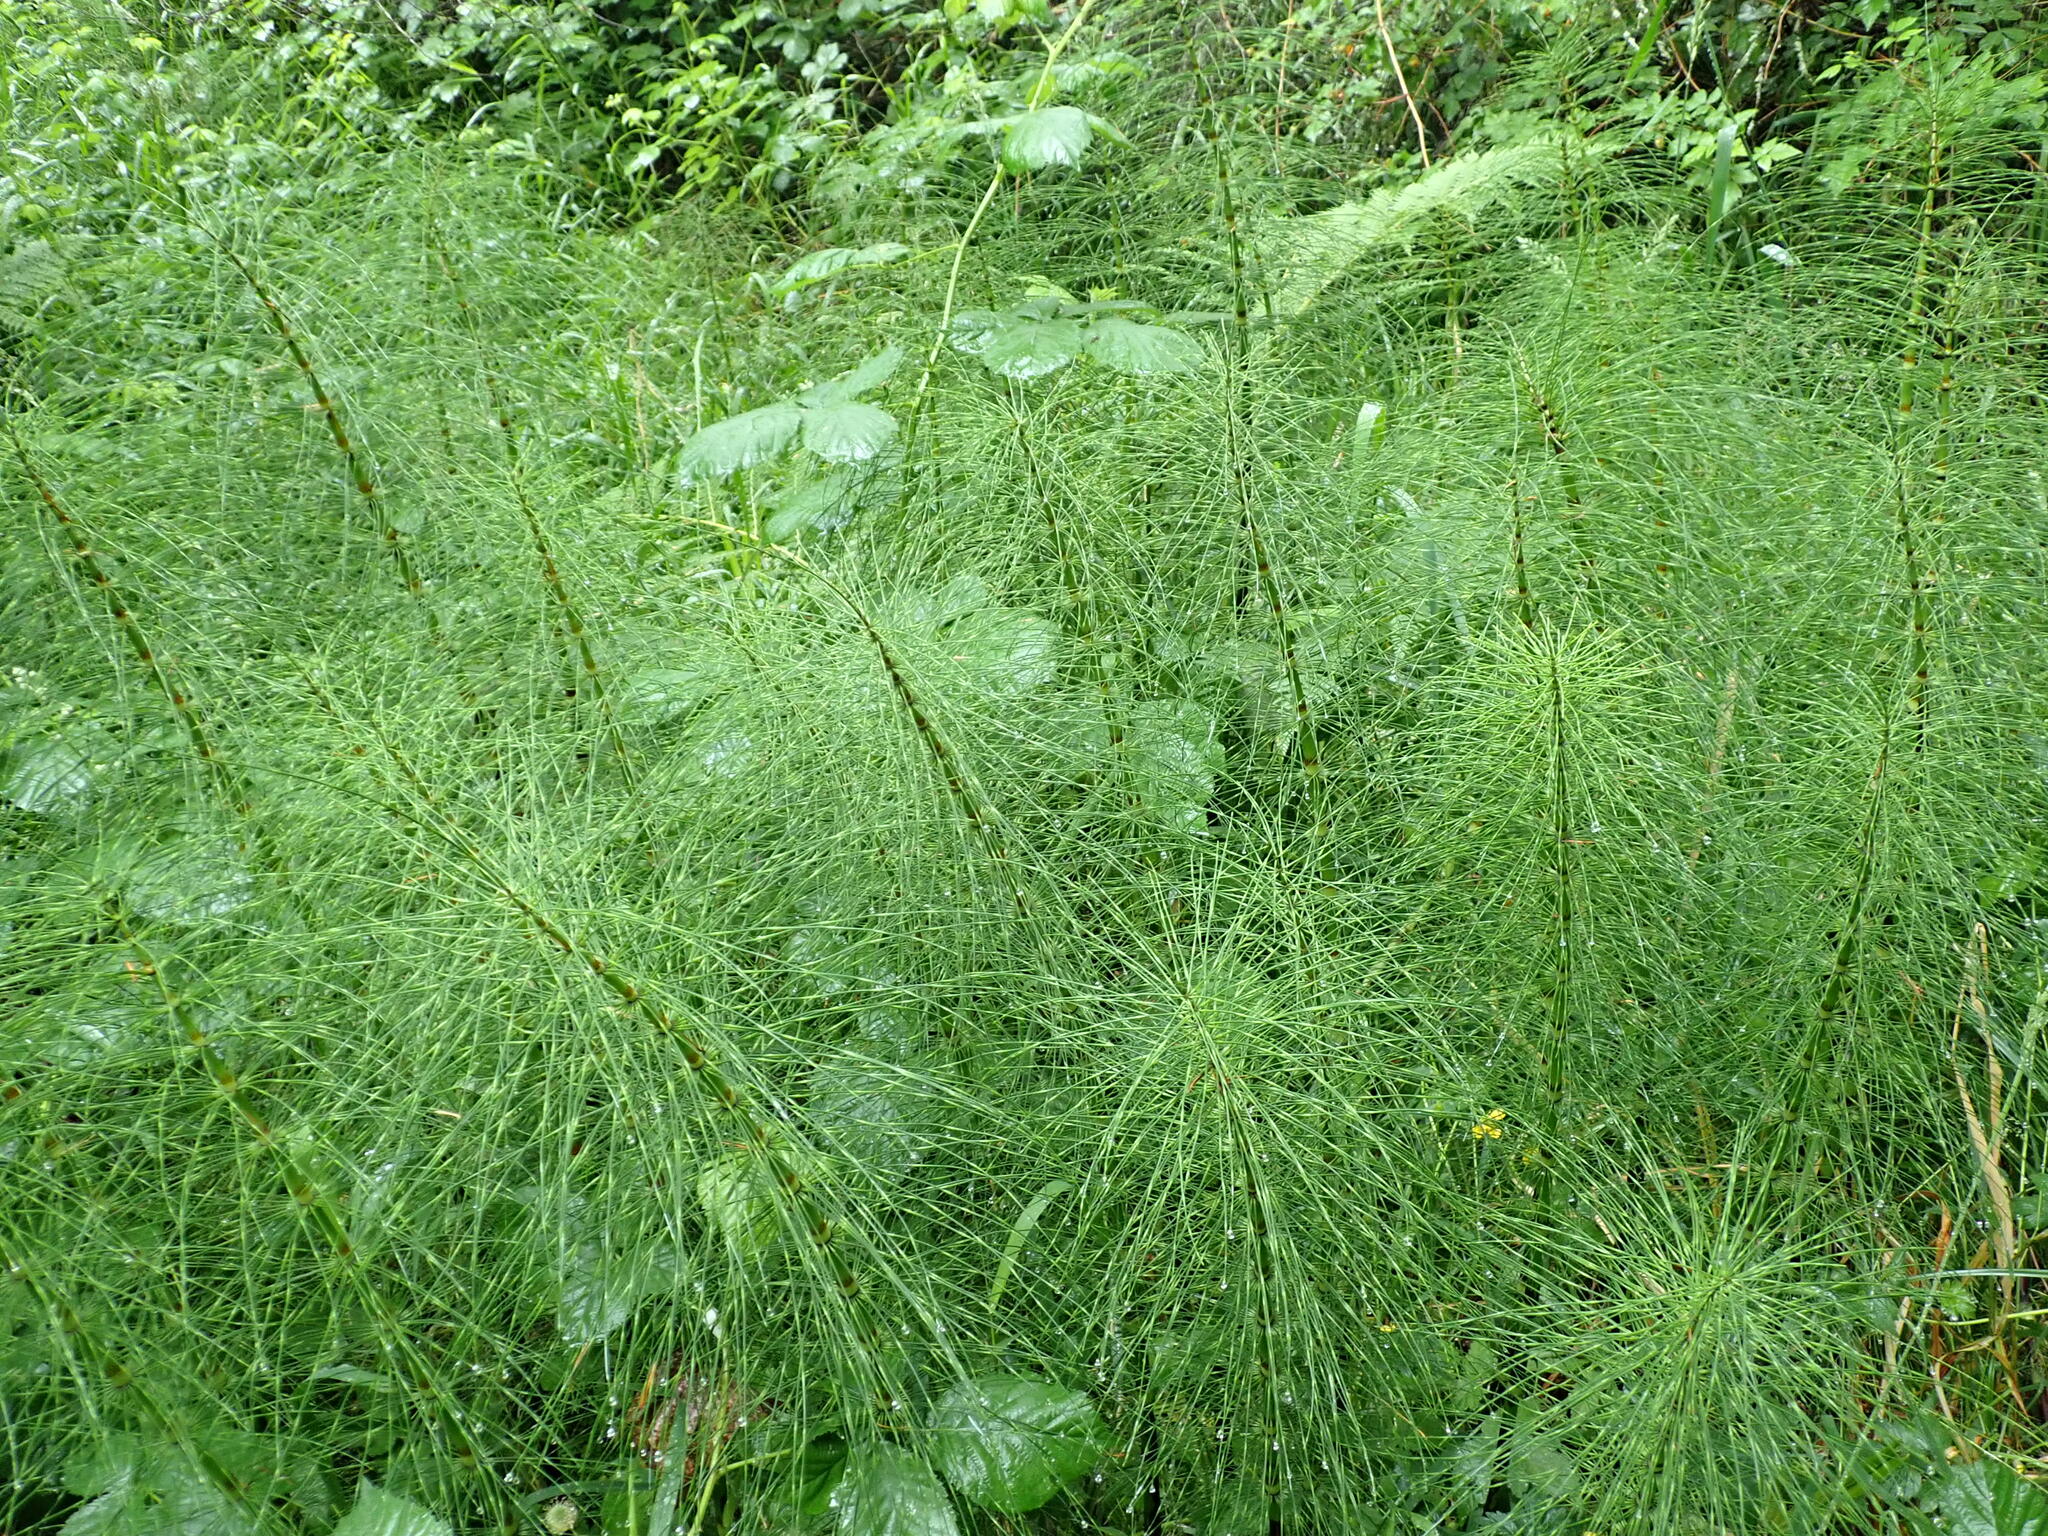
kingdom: Plantae
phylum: Tracheophyta
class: Polypodiopsida
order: Equisetales
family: Equisetaceae
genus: Equisetum
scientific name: Equisetum braunii
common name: Braun's horsetail
